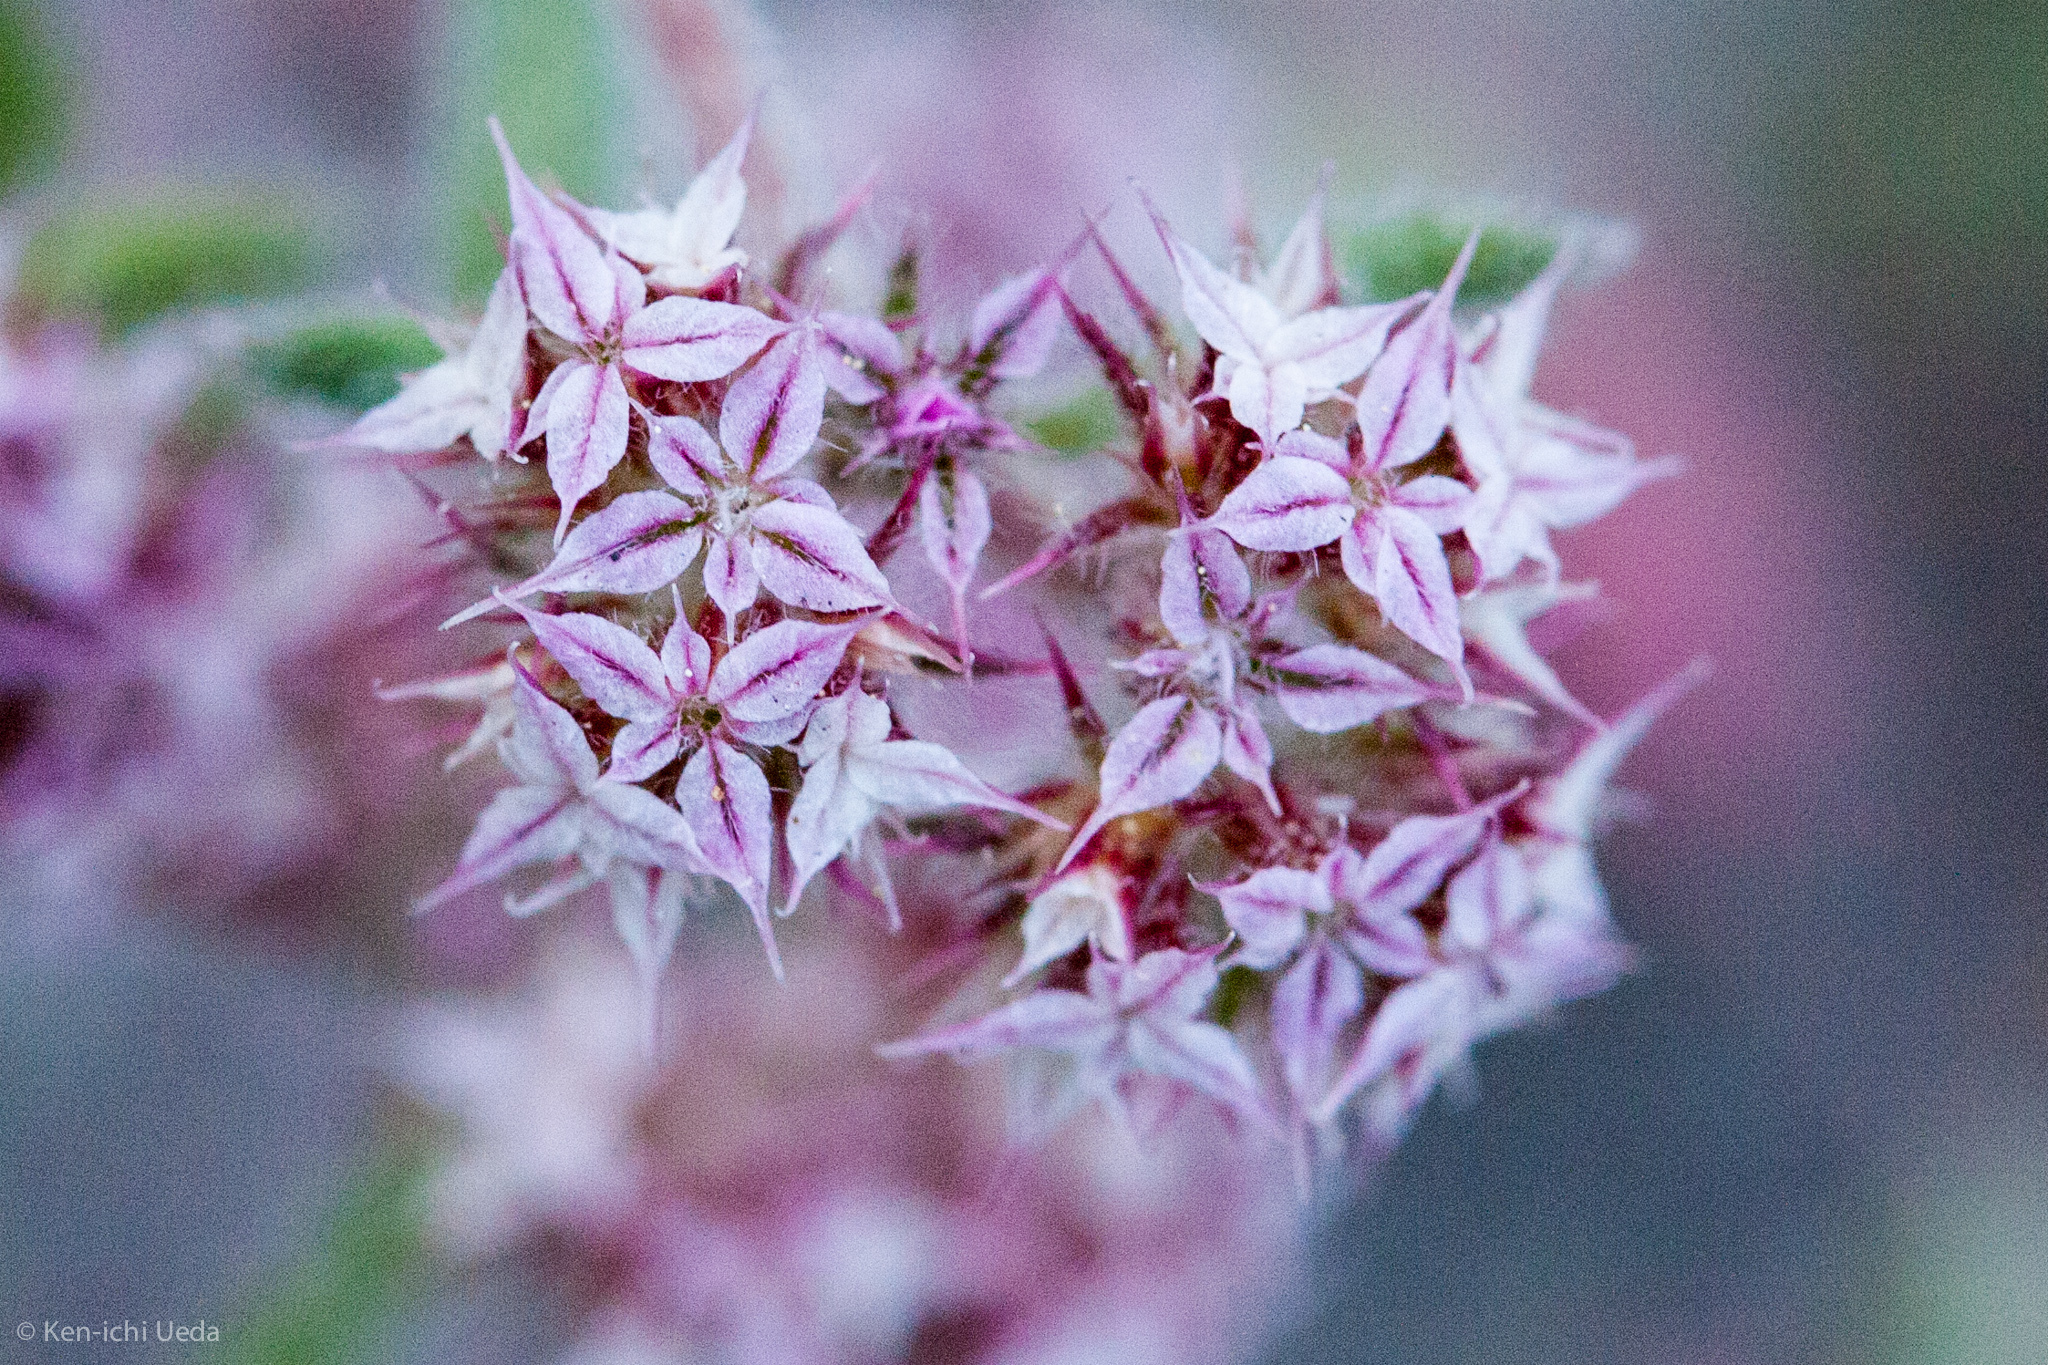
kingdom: Plantae
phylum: Tracheophyta
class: Magnoliopsida
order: Caryophyllales
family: Polygonaceae
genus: Chorizanthe
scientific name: Chorizanthe pungens
